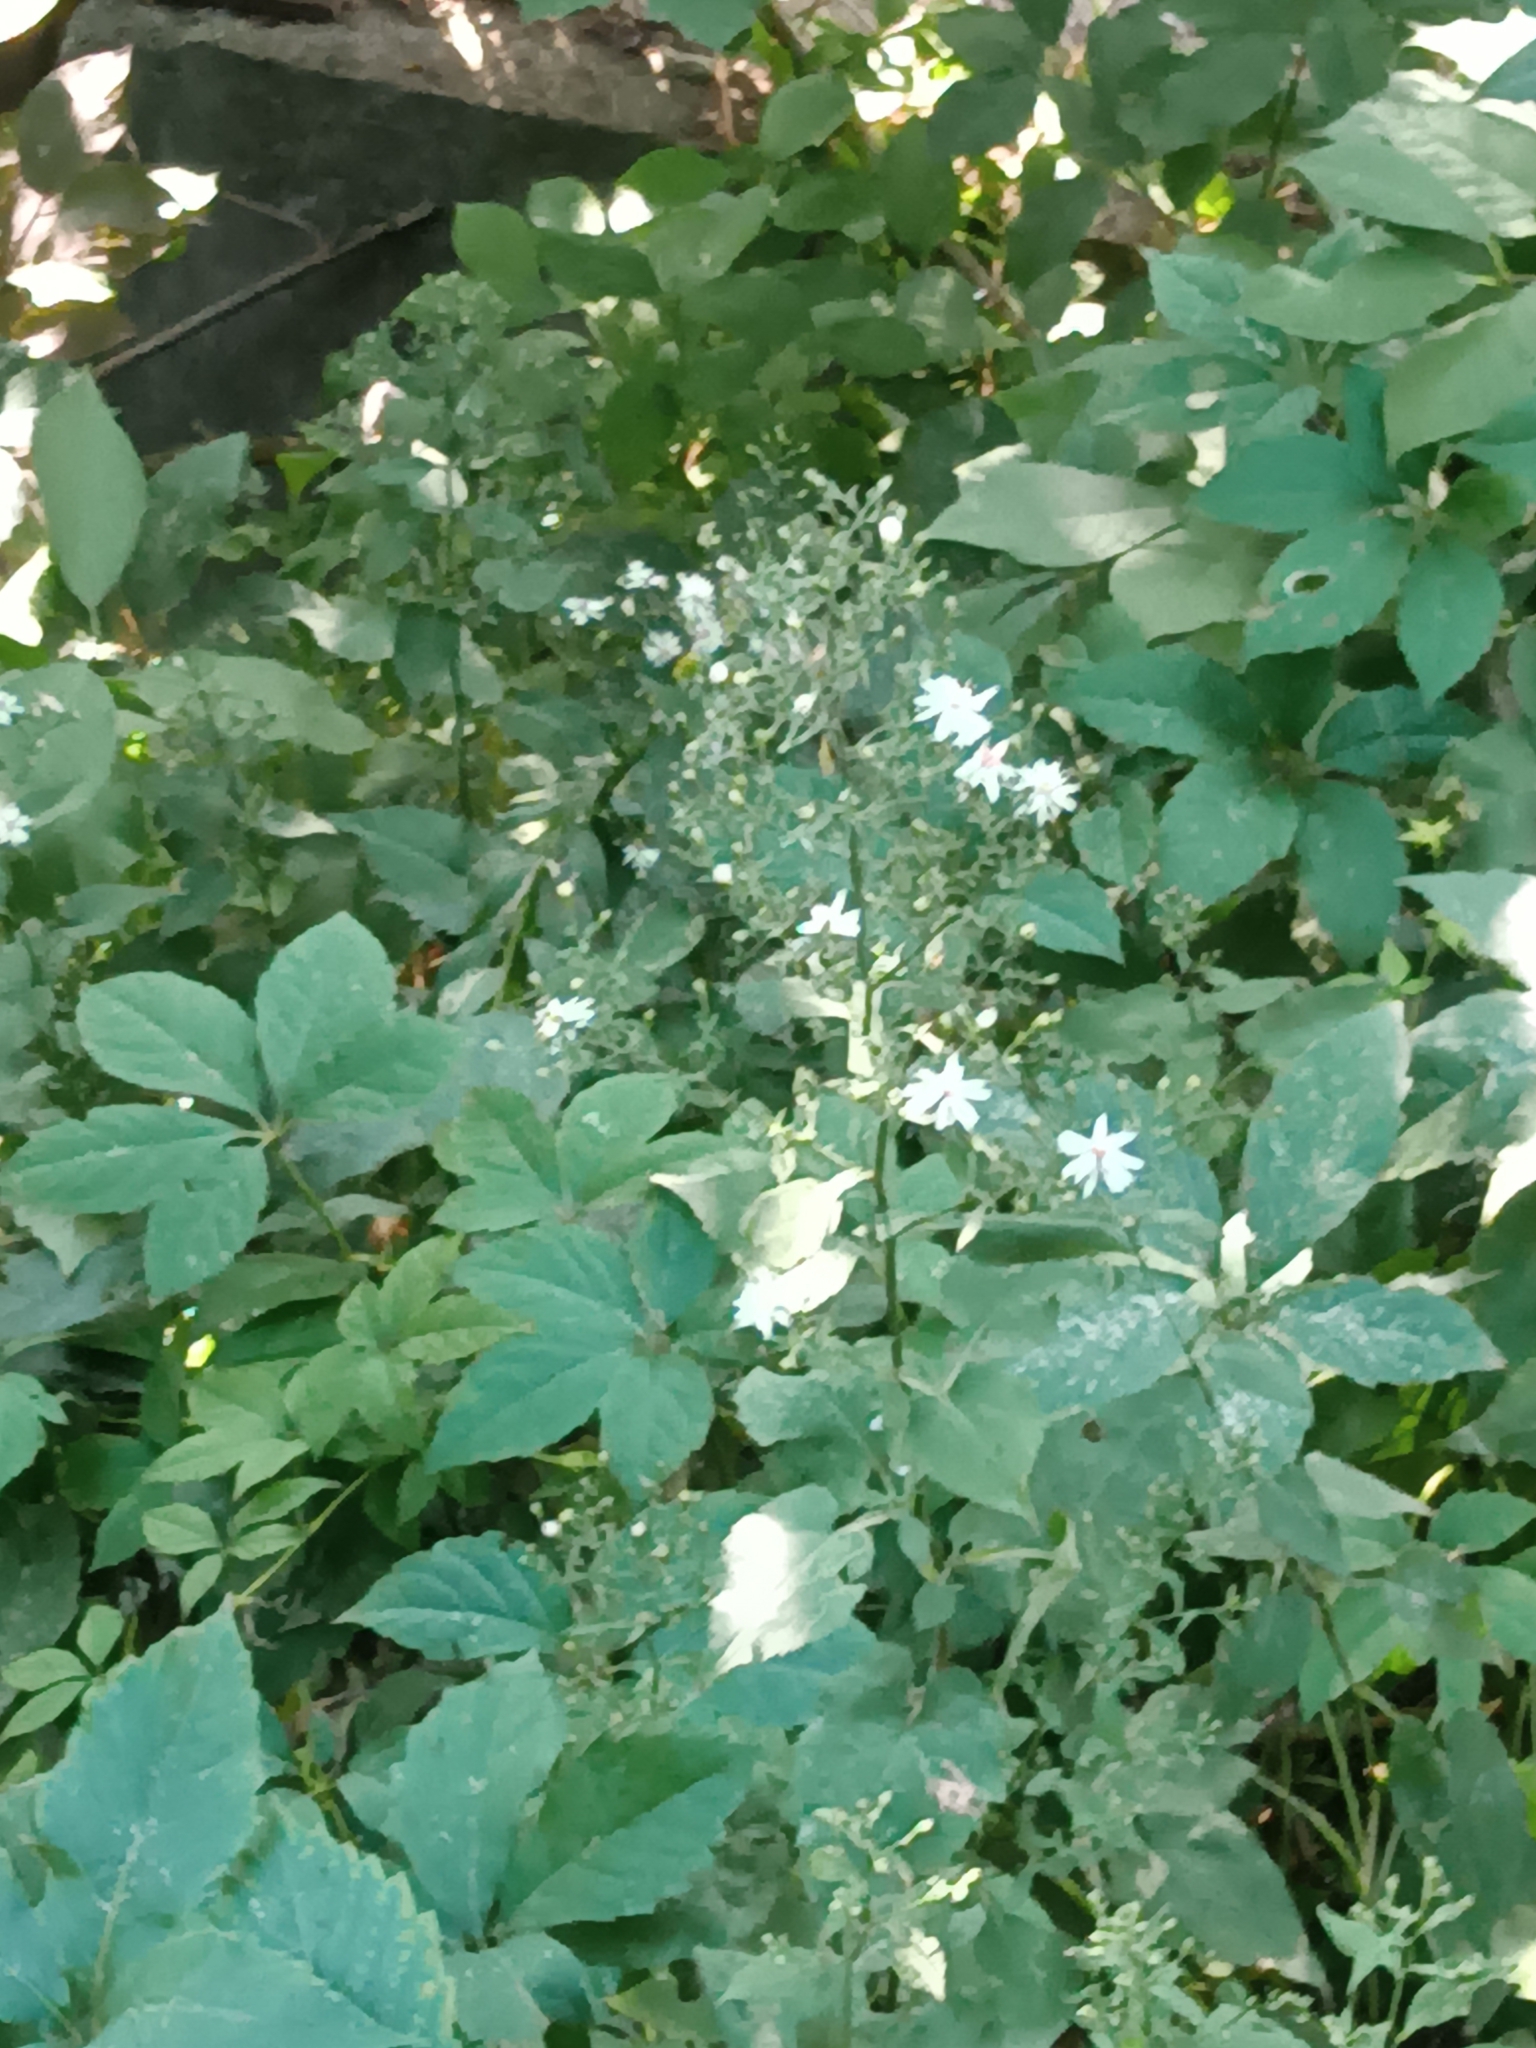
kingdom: Plantae
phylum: Tracheophyta
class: Magnoliopsida
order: Asterales
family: Asteraceae
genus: Symphyotrichum
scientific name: Symphyotrichum cordifolium
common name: Beeweed
